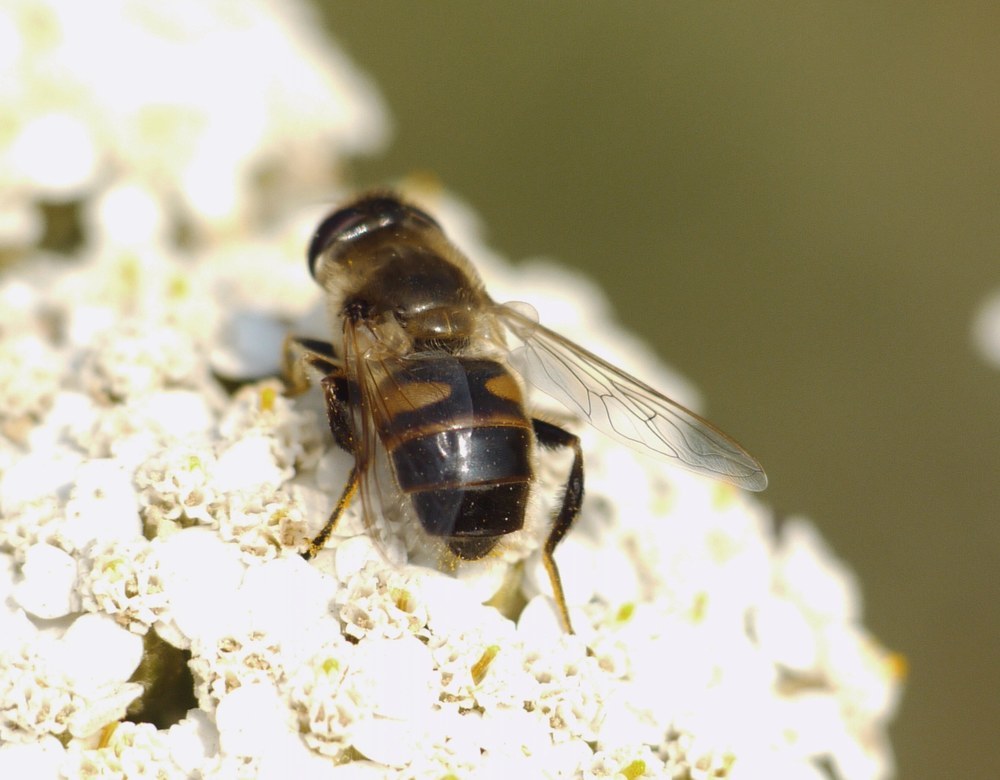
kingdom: Animalia
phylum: Arthropoda
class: Insecta
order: Diptera
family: Syrphidae
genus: Eristalis
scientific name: Eristalis tenax
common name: Drone fly
